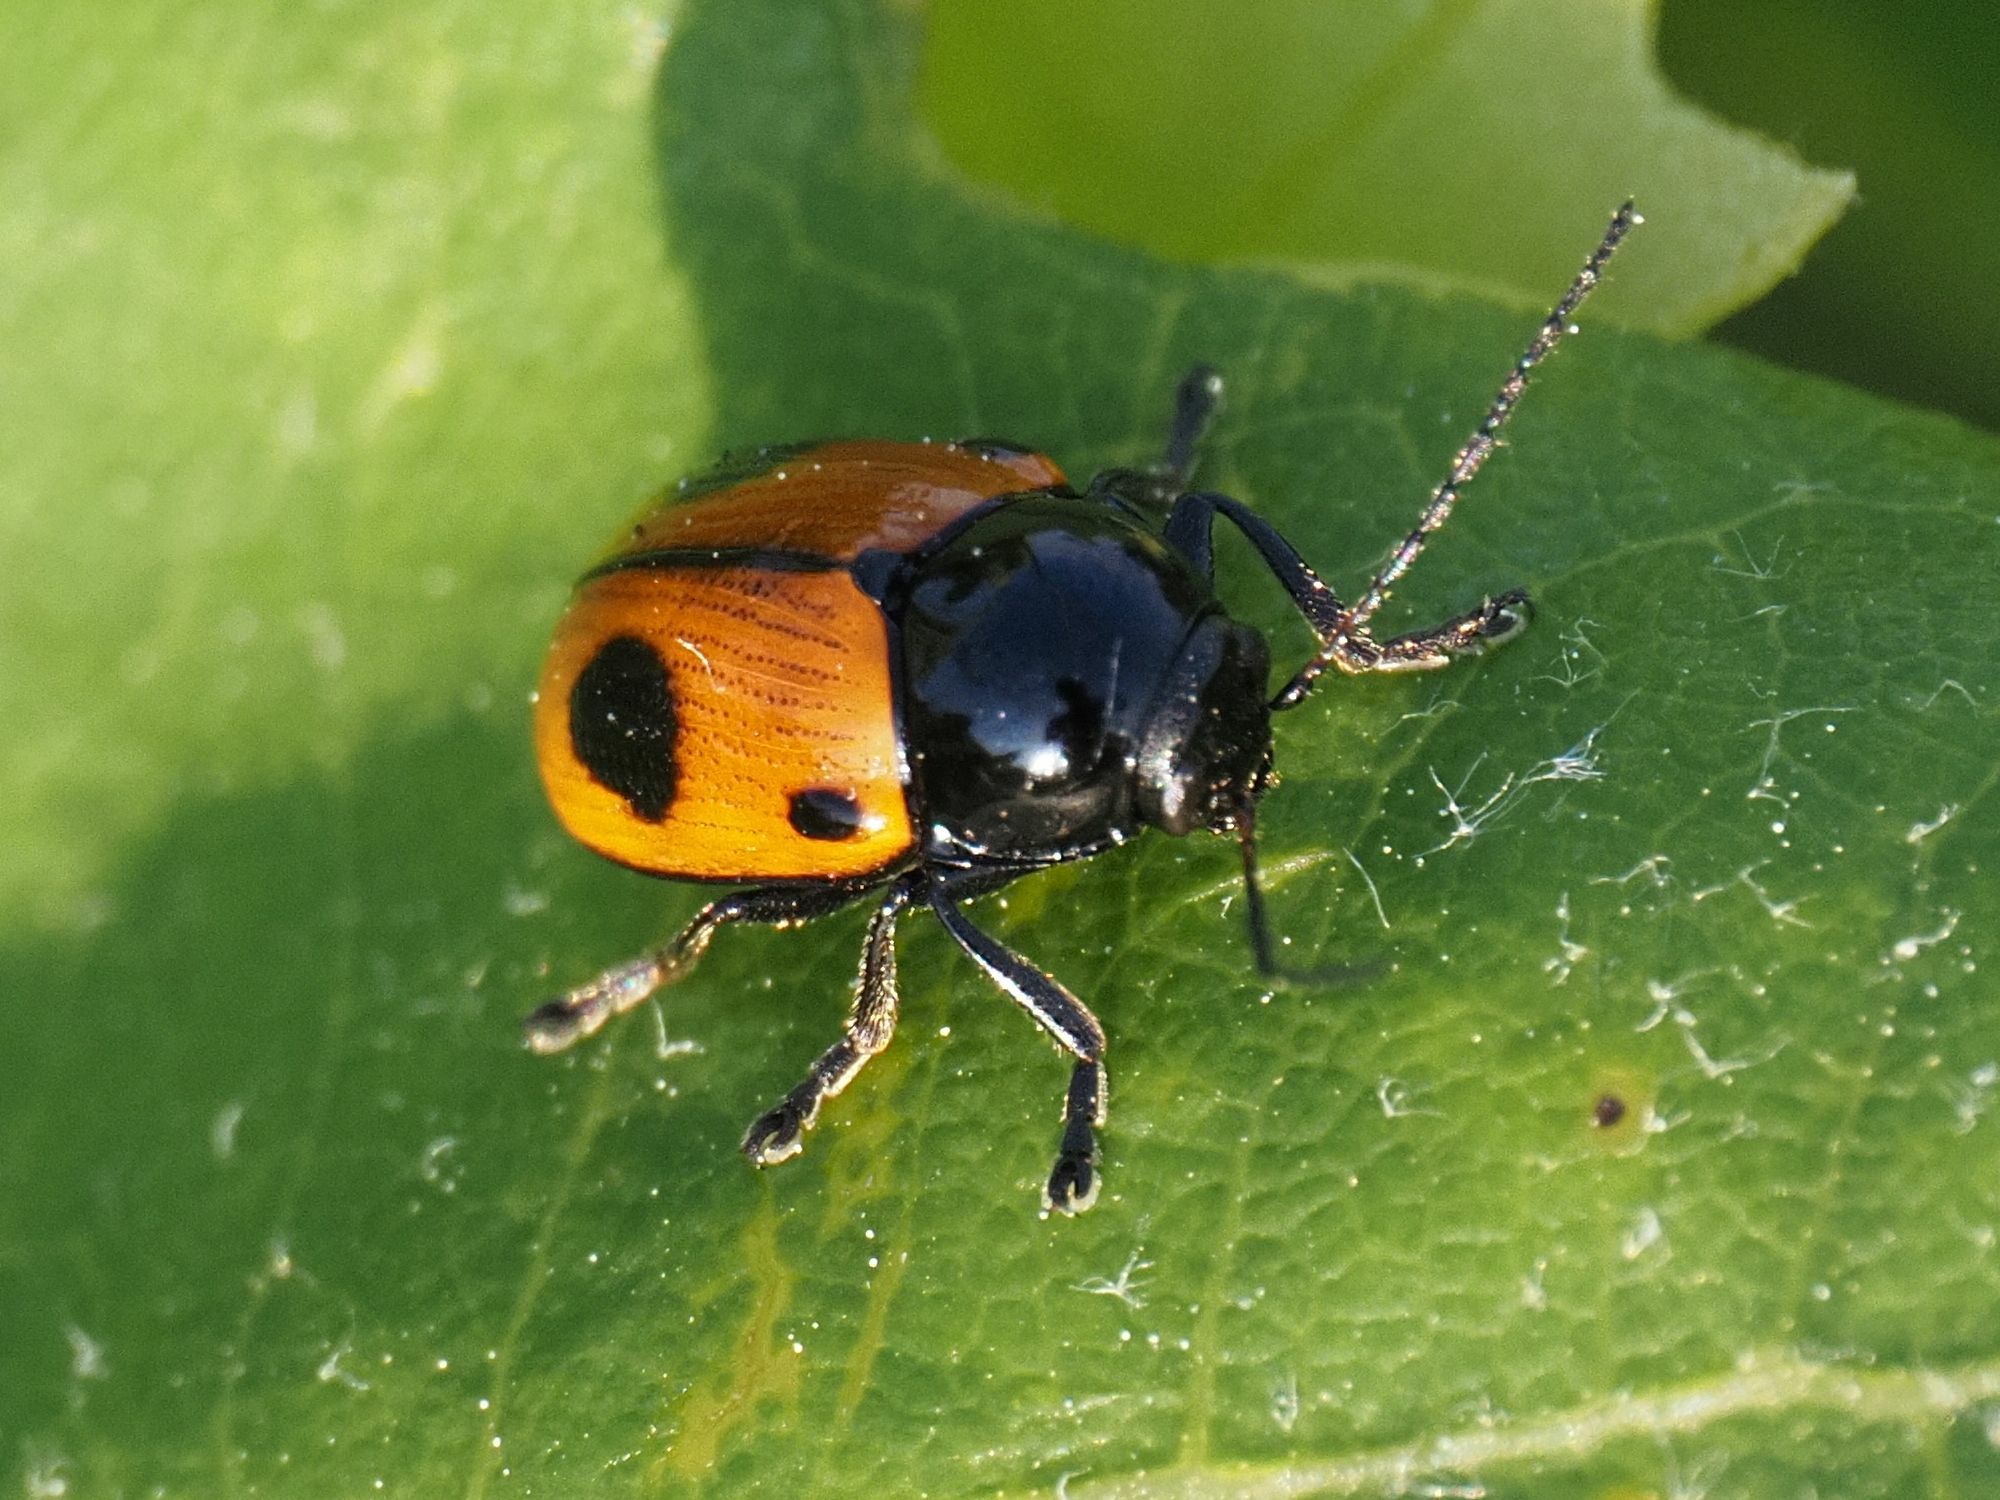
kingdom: Animalia
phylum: Arthropoda
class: Insecta
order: Coleoptera
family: Chrysomelidae
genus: Chiridopsis
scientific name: Chiridopsis bipunctata
